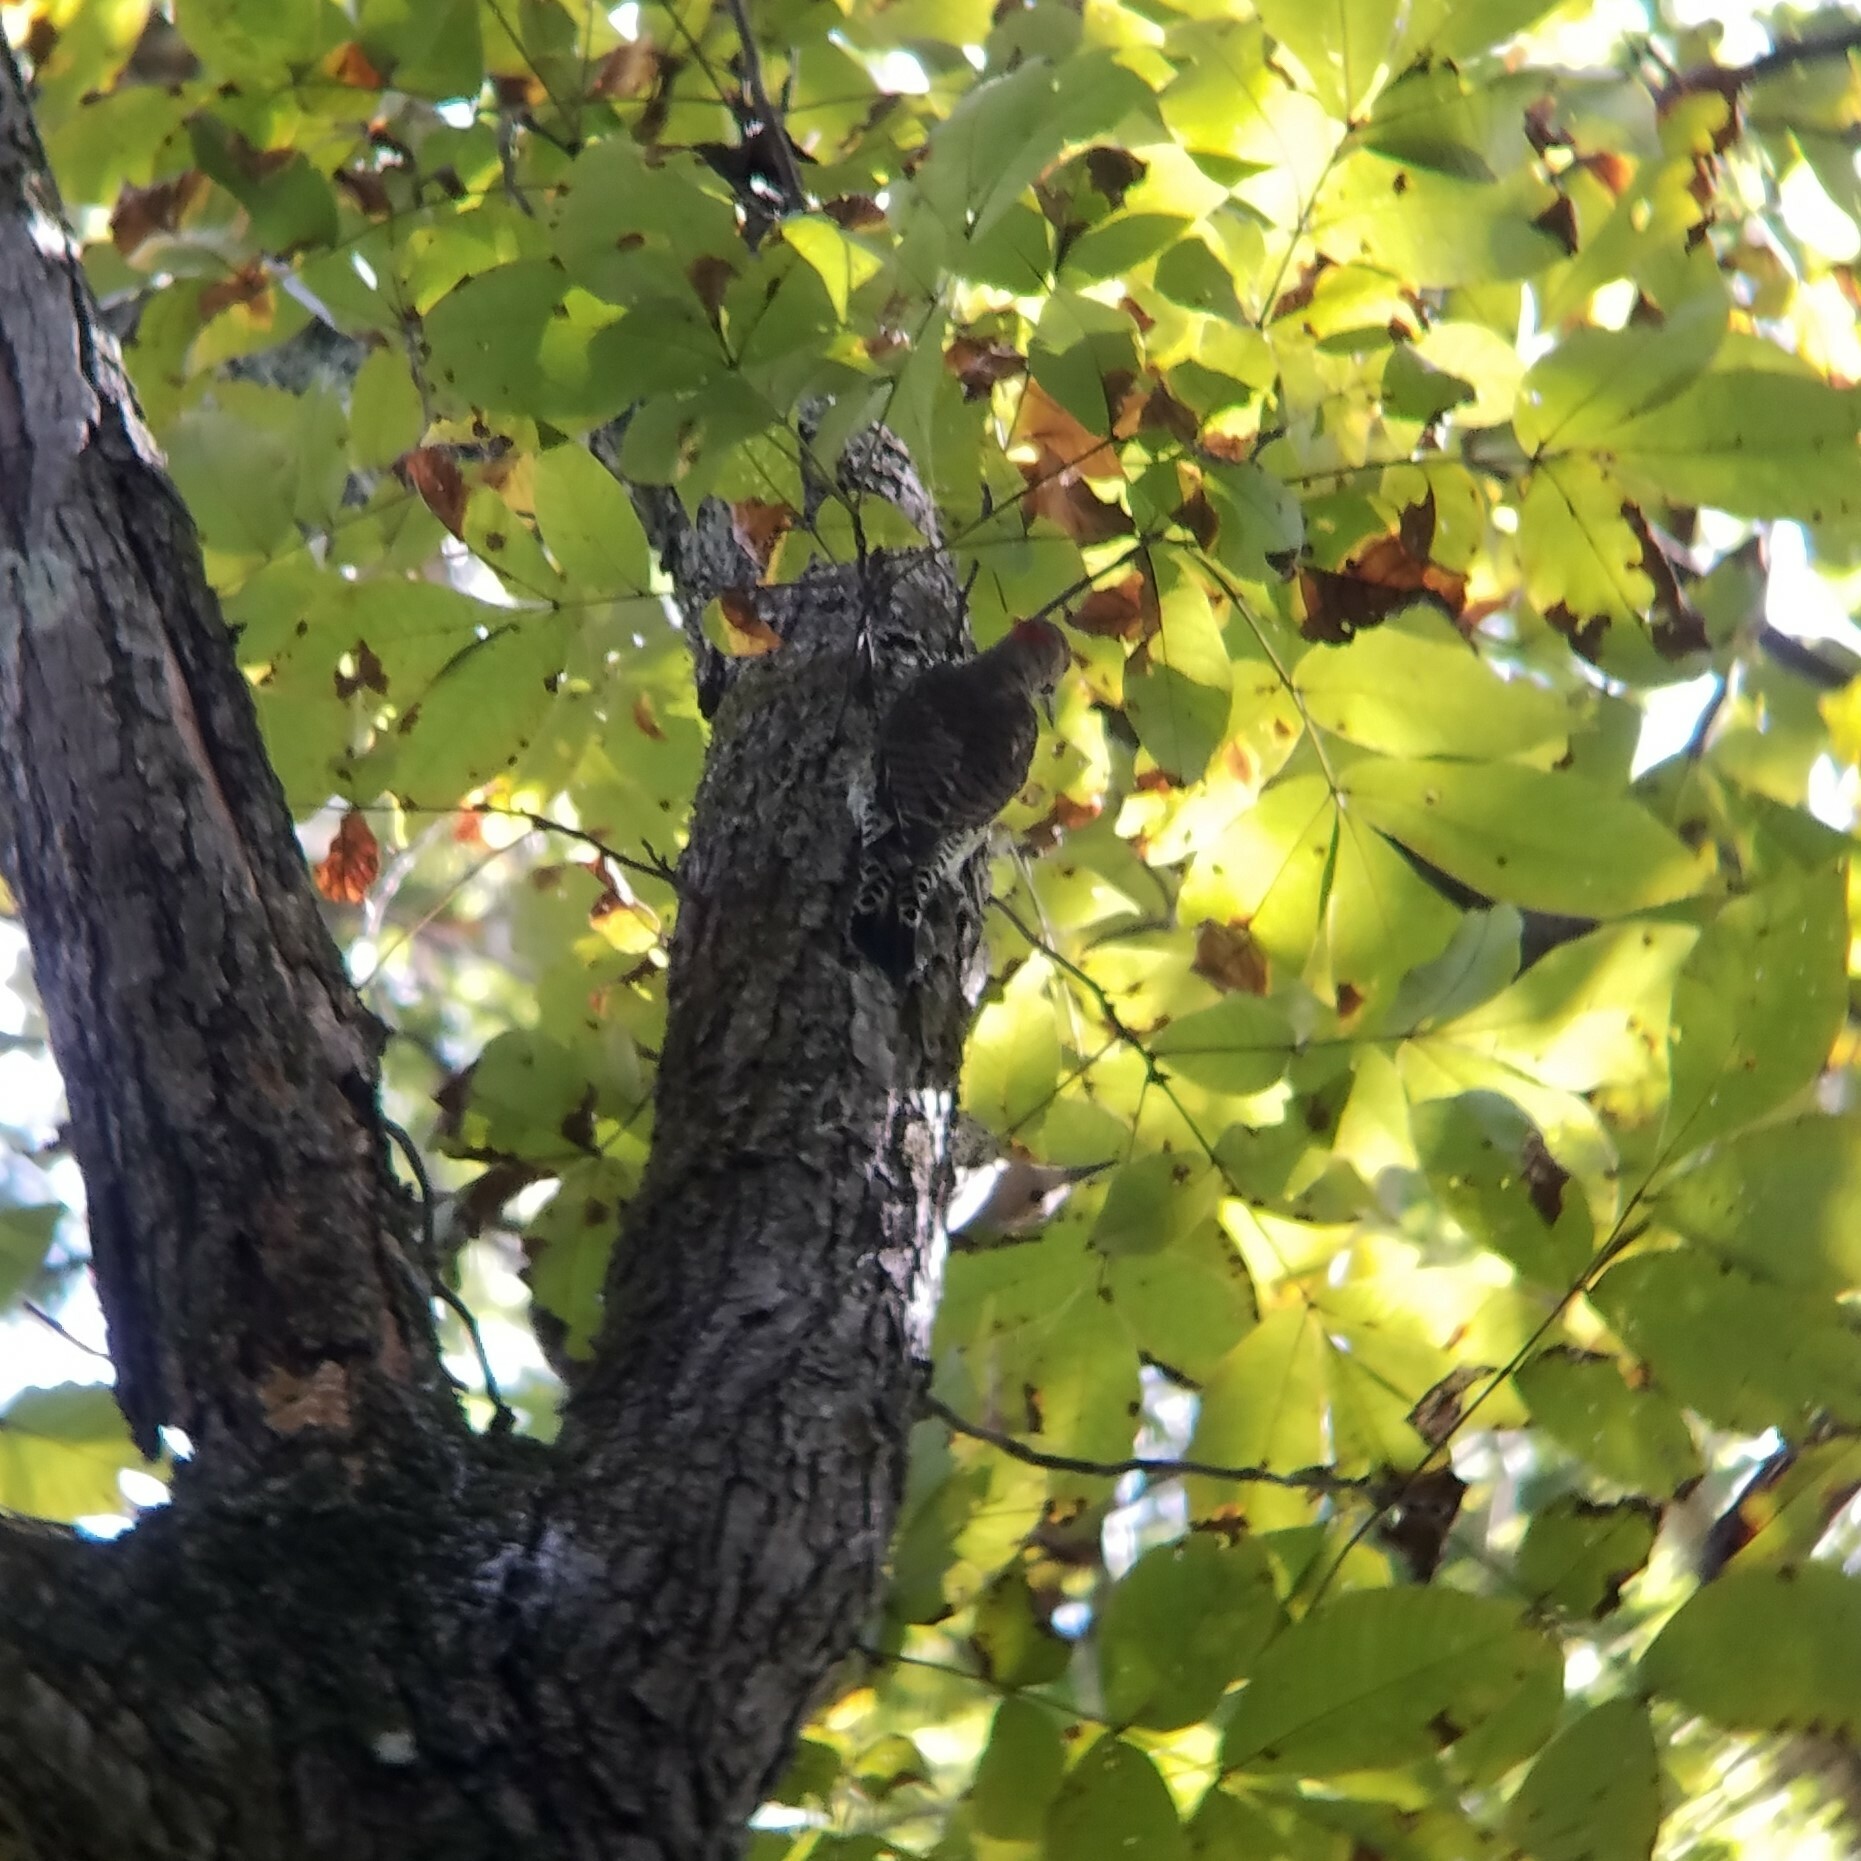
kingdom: Animalia
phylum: Chordata
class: Aves
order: Piciformes
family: Picidae
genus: Colaptes
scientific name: Colaptes auratus
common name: Northern flicker
